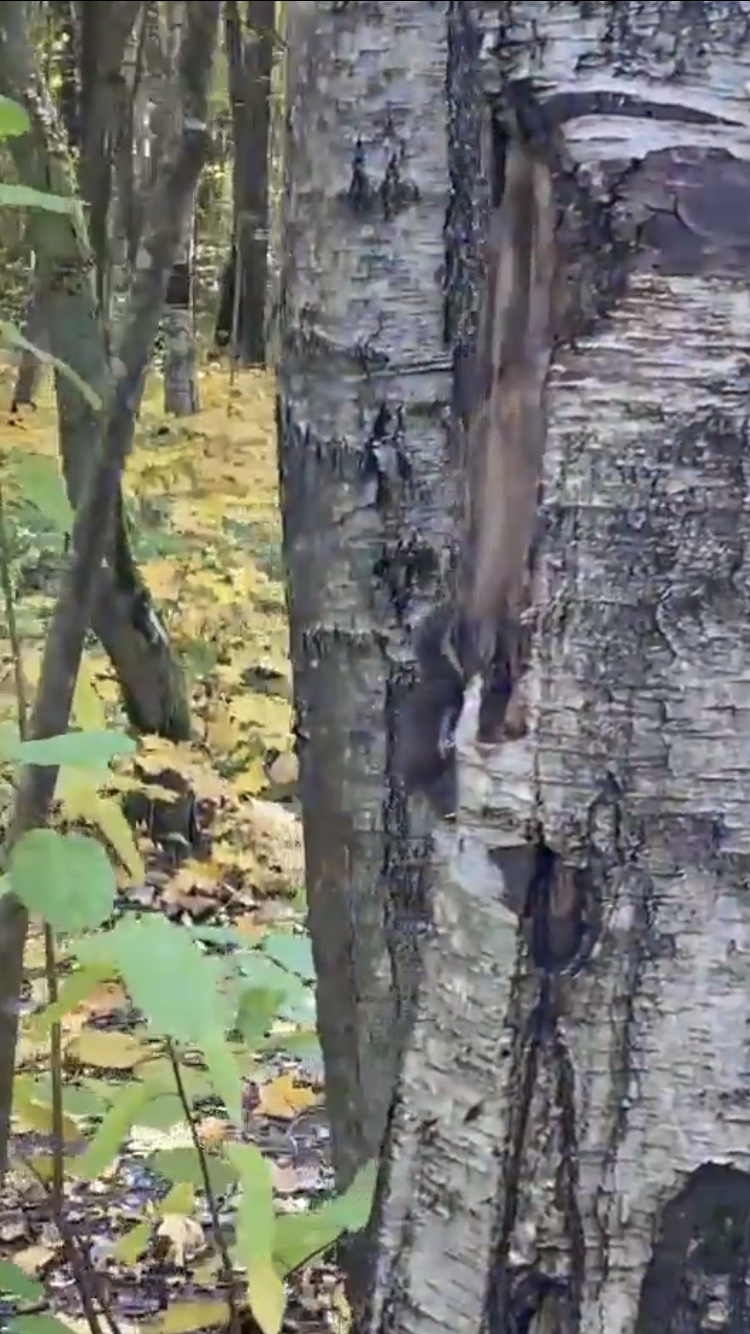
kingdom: Animalia
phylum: Chordata
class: Mammalia
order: Carnivora
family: Mustelidae
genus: Mustela
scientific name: Mustela nivalis
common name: Least weasel
